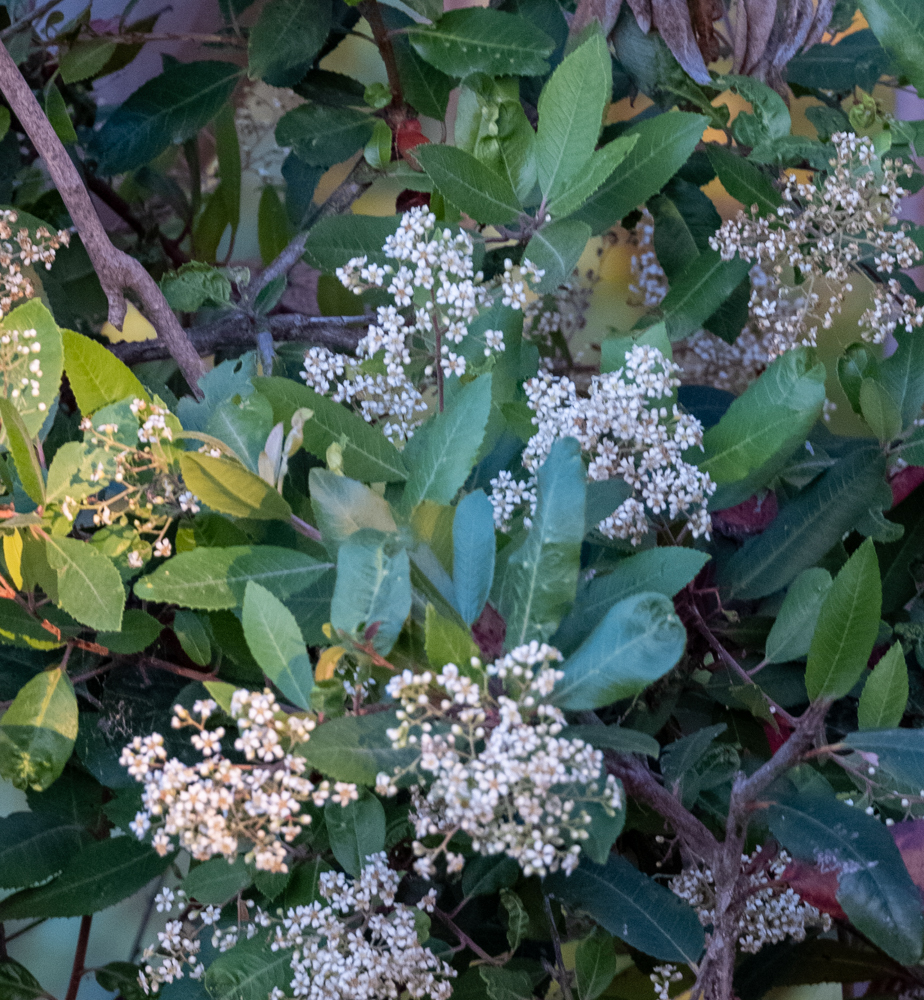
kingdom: Plantae
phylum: Tracheophyta
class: Magnoliopsida
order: Rosales
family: Rosaceae
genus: Heteromeles
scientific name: Heteromeles arbutifolia
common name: California-holly
